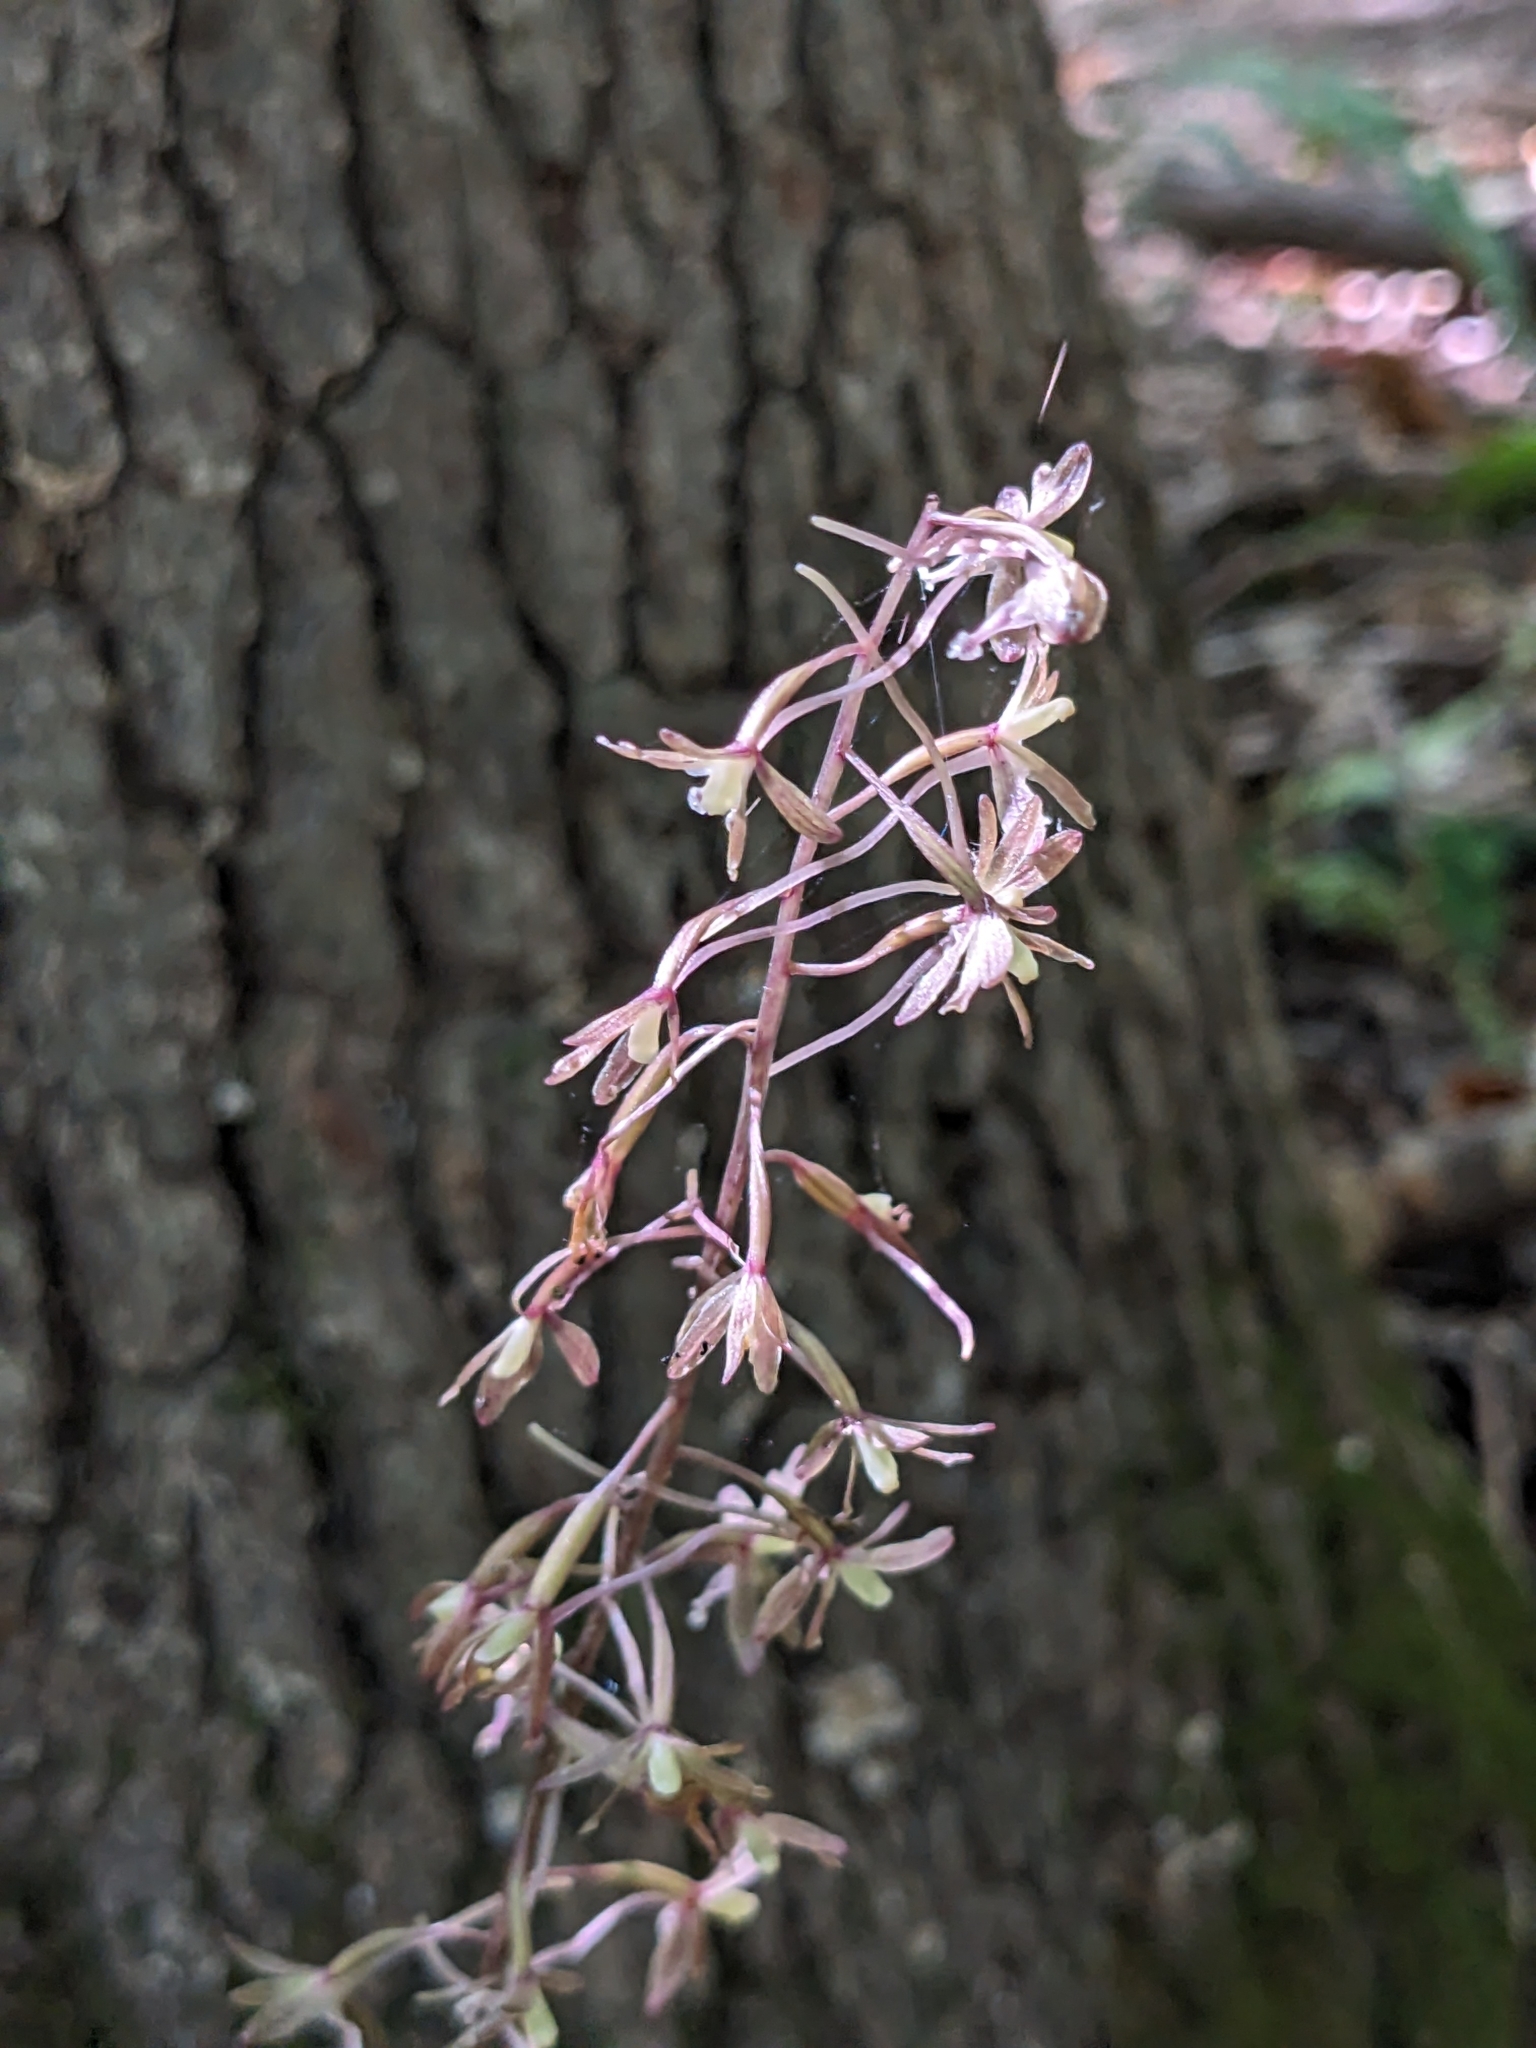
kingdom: Plantae
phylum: Tracheophyta
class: Liliopsida
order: Asparagales
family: Orchidaceae
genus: Tipularia
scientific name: Tipularia discolor
